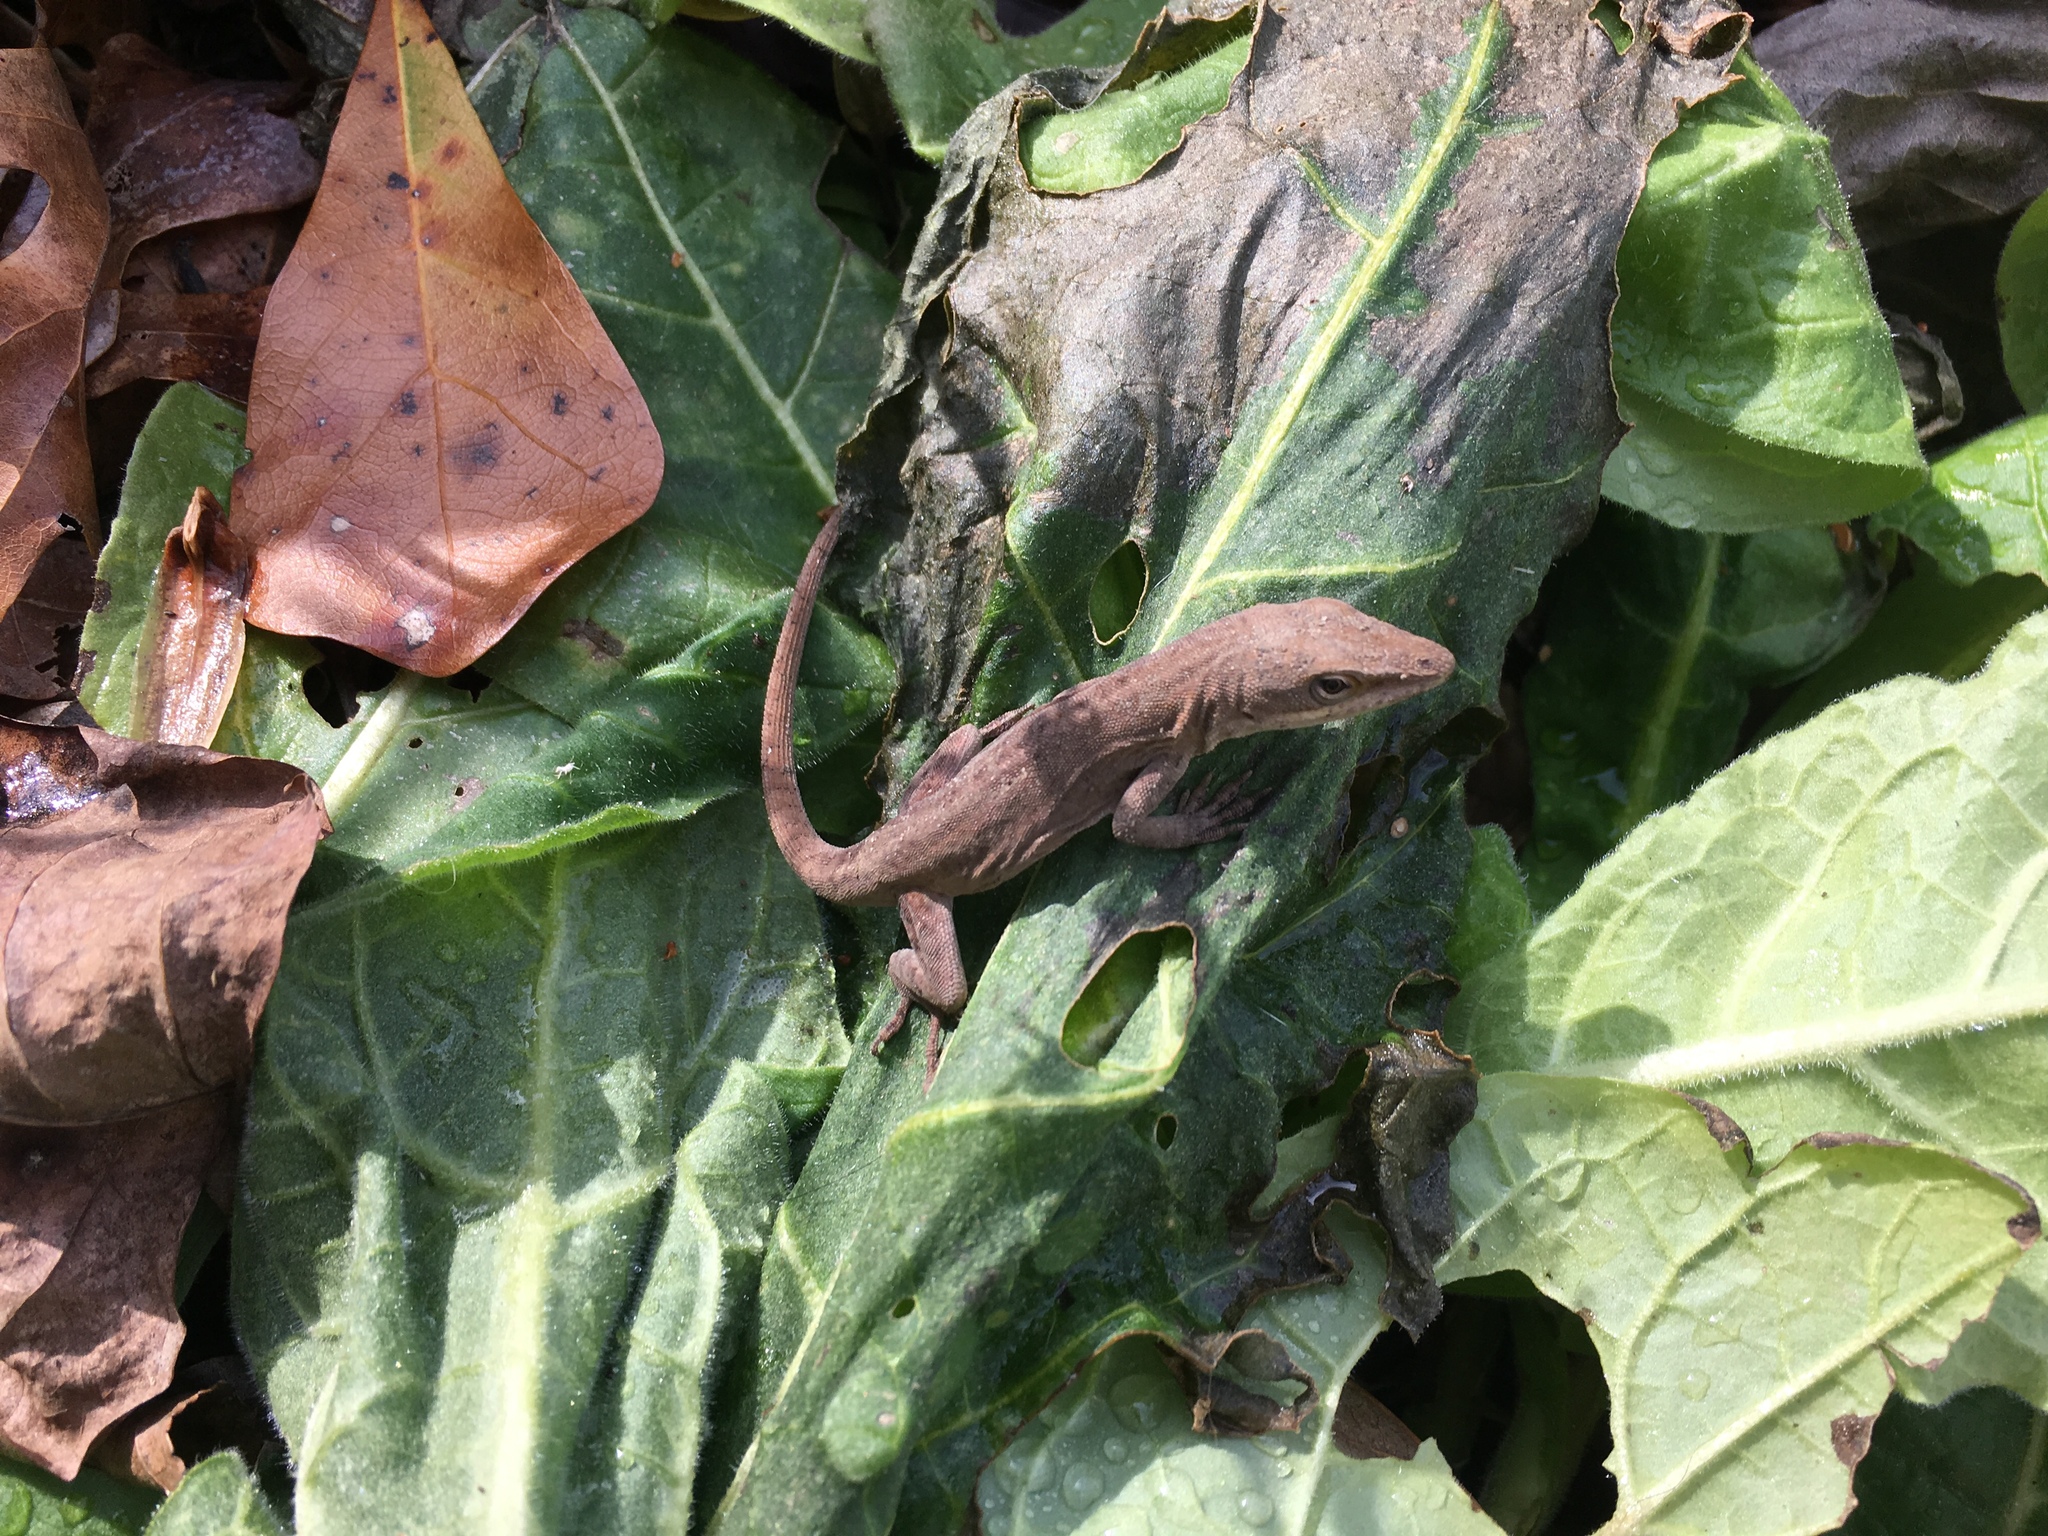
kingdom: Animalia
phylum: Chordata
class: Squamata
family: Dactyloidae
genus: Anolis
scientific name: Anolis carolinensis
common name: Green anole
